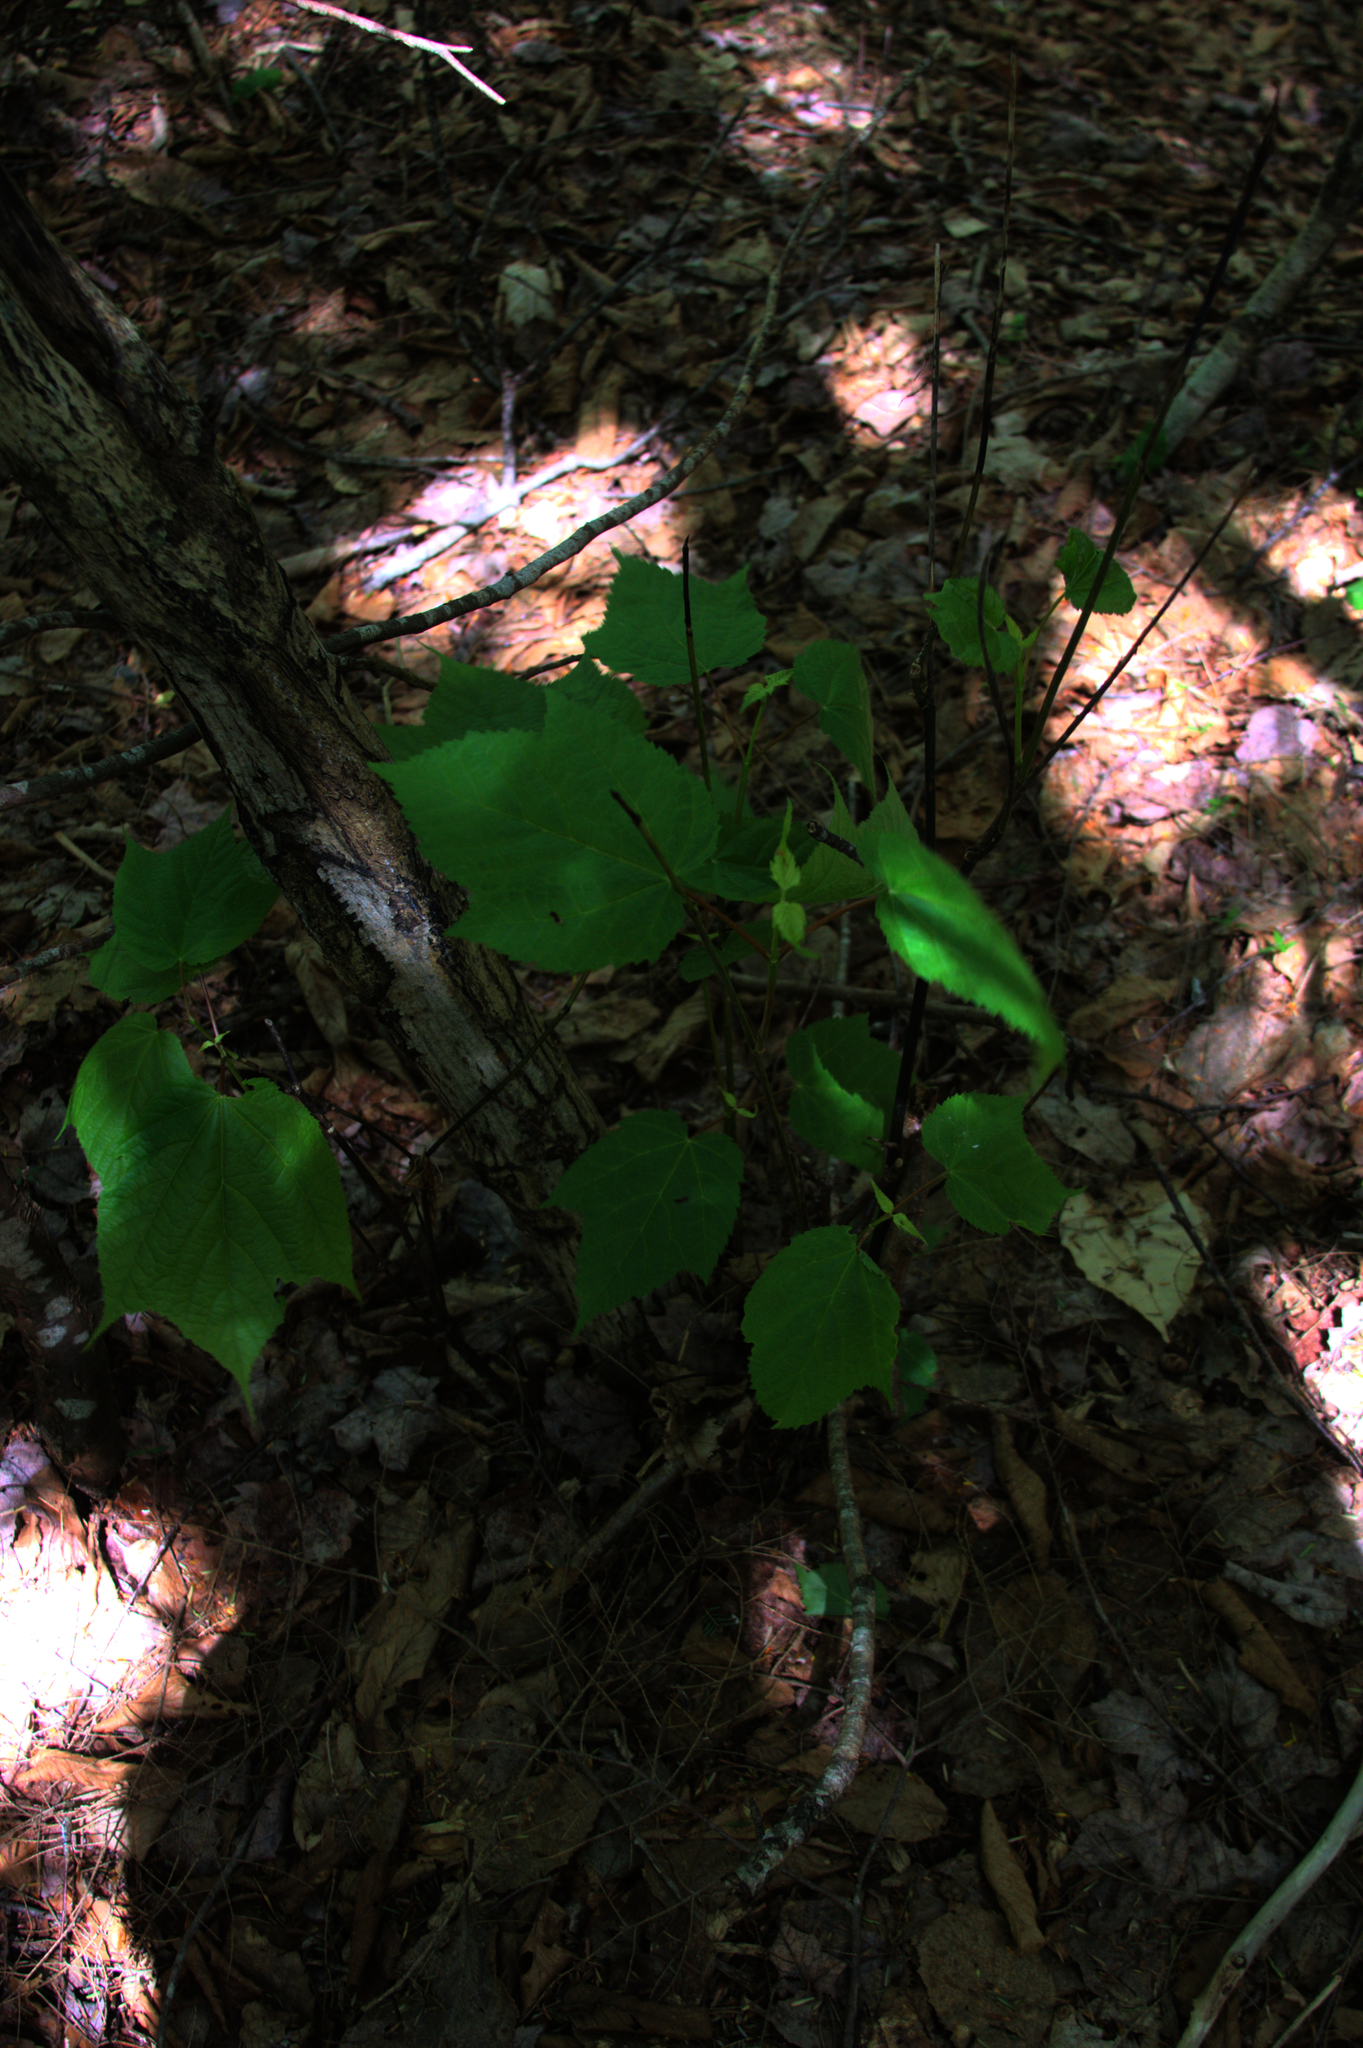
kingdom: Plantae
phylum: Tracheophyta
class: Magnoliopsida
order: Sapindales
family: Sapindaceae
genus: Acer
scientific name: Acer pensylvanicum
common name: Moosewood
